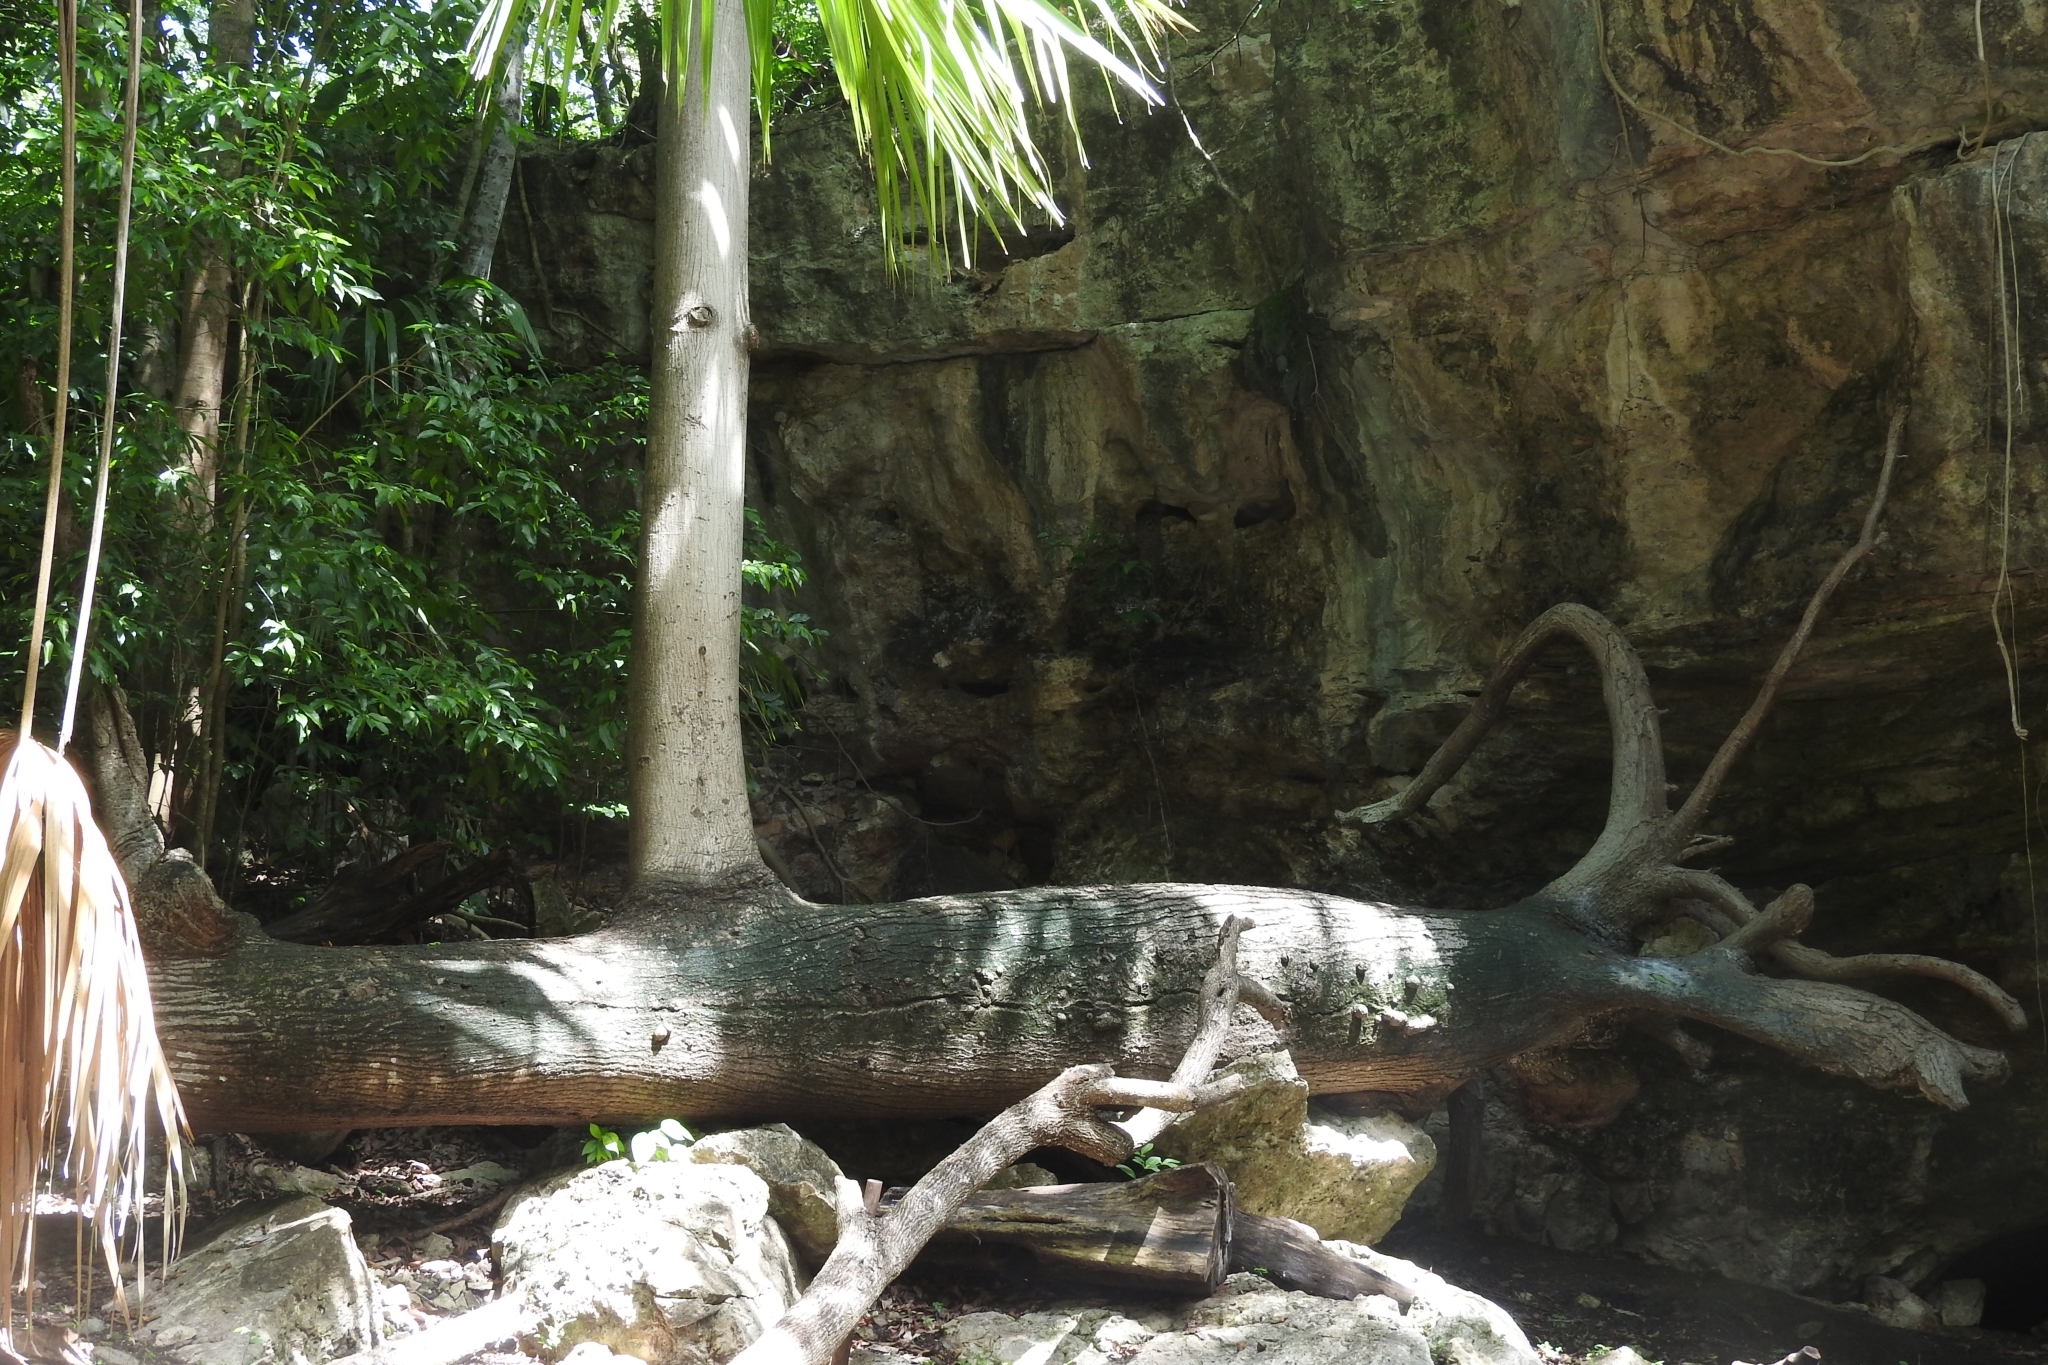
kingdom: Plantae
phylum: Tracheophyta
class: Magnoliopsida
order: Malvales
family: Malvaceae
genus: Ceiba
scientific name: Ceiba pentandra
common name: Kapok
